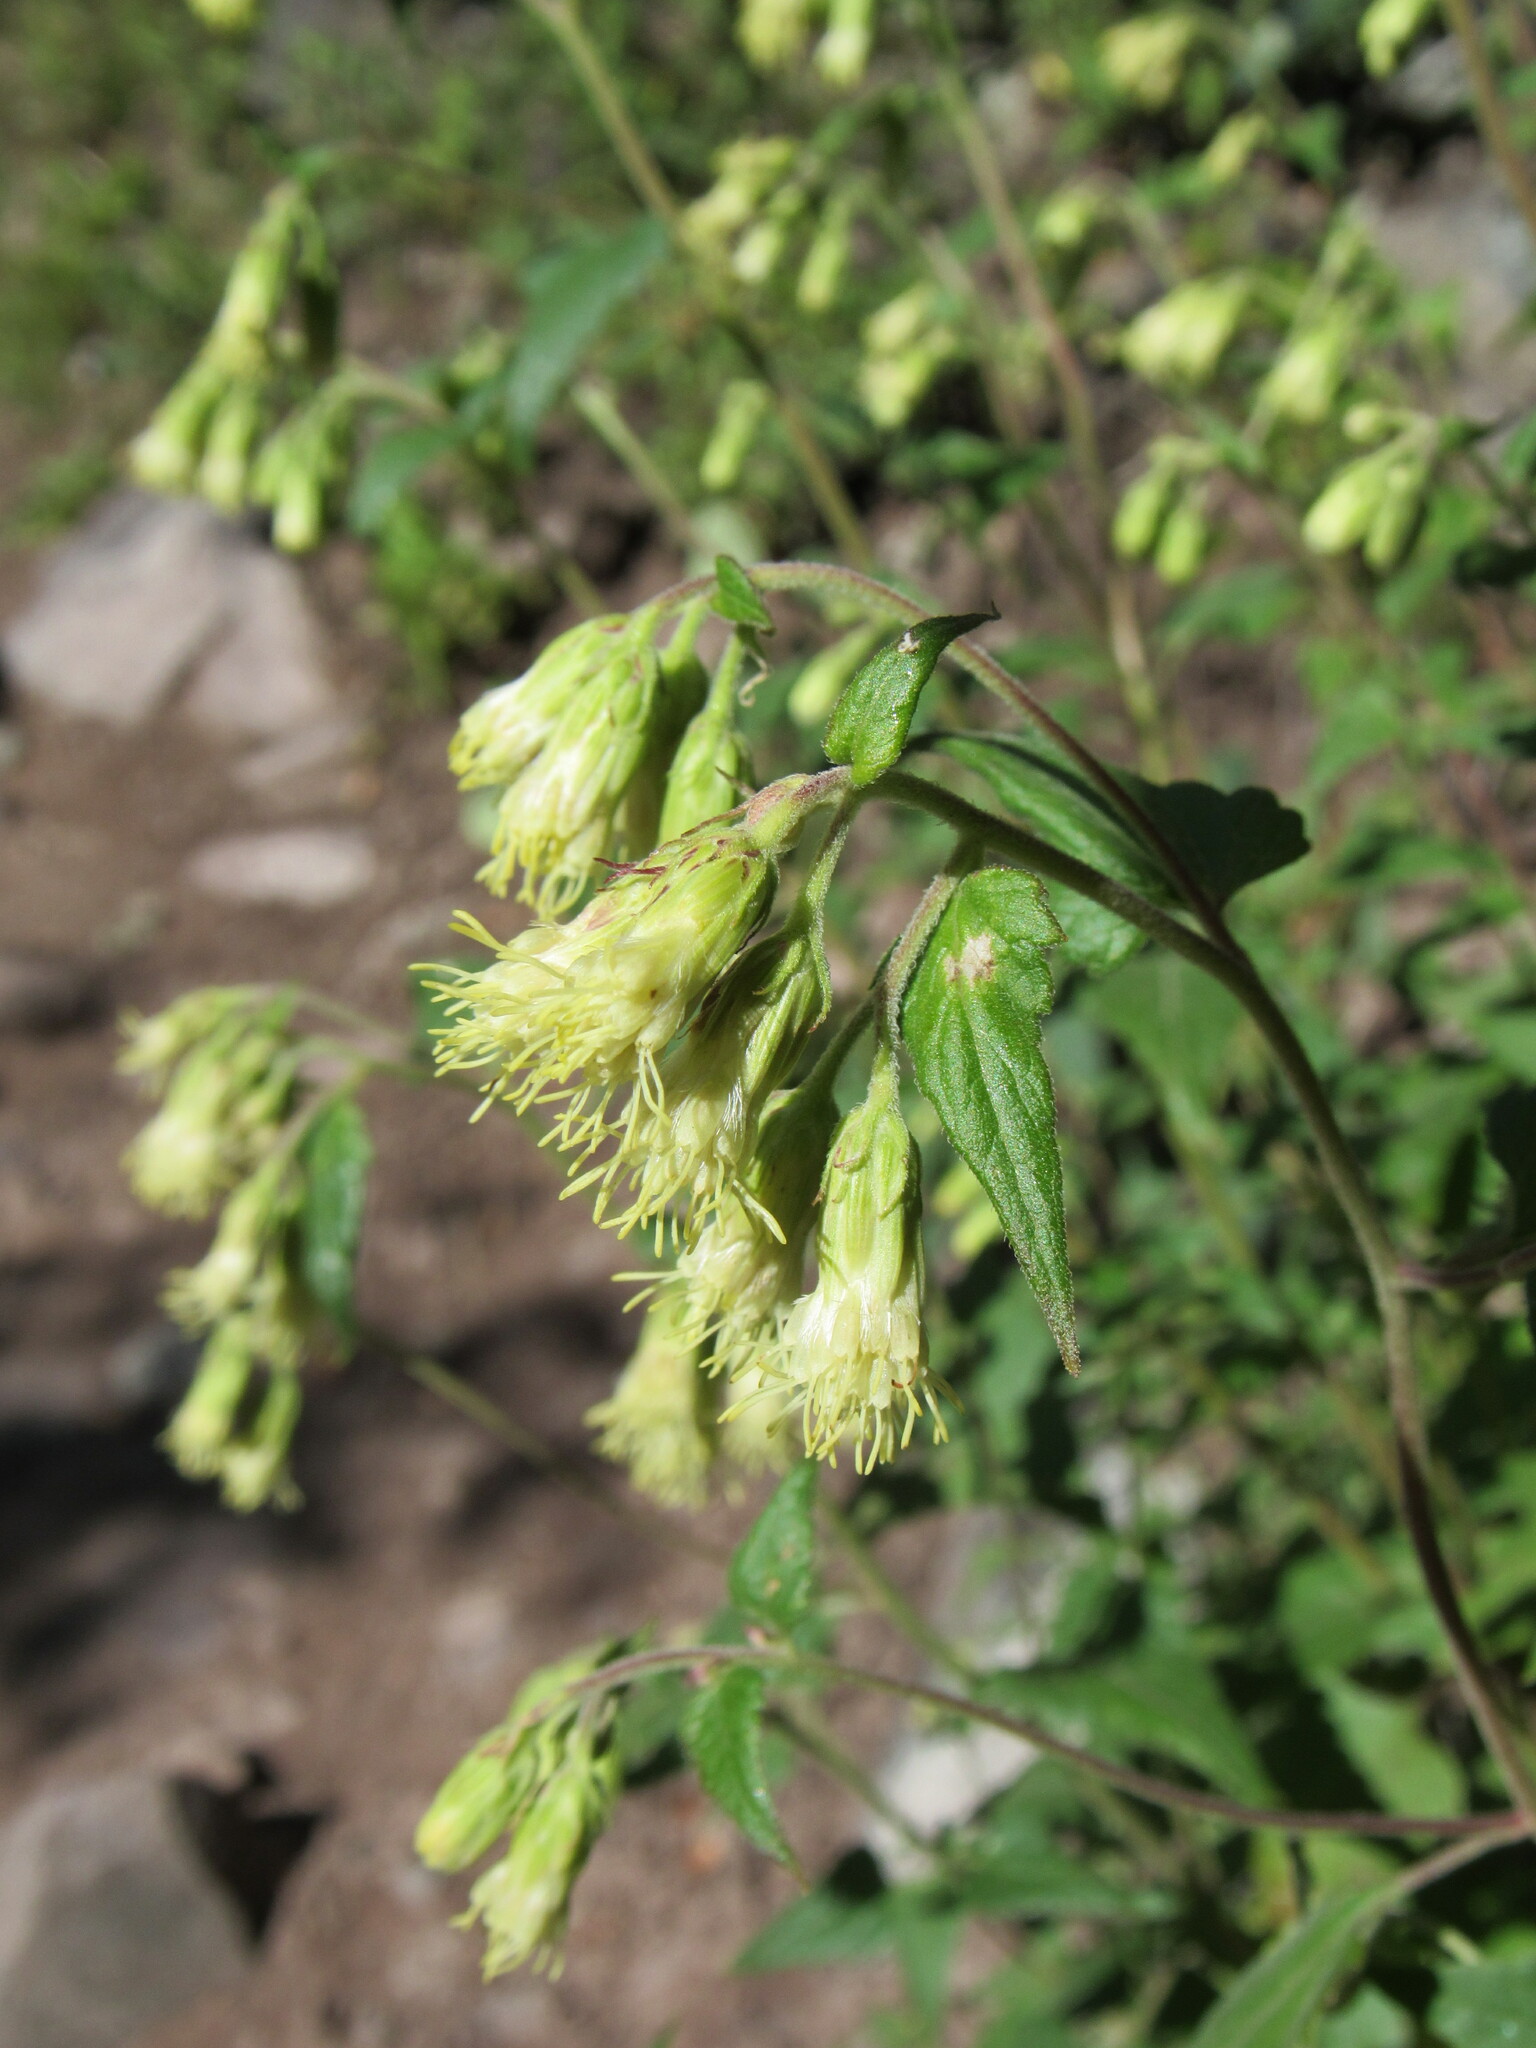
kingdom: Plantae
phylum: Tracheophyta
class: Magnoliopsida
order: Asterales
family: Asteraceae
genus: Brickellia
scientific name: Brickellia grandiflora
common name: Large-flowered brickellia
